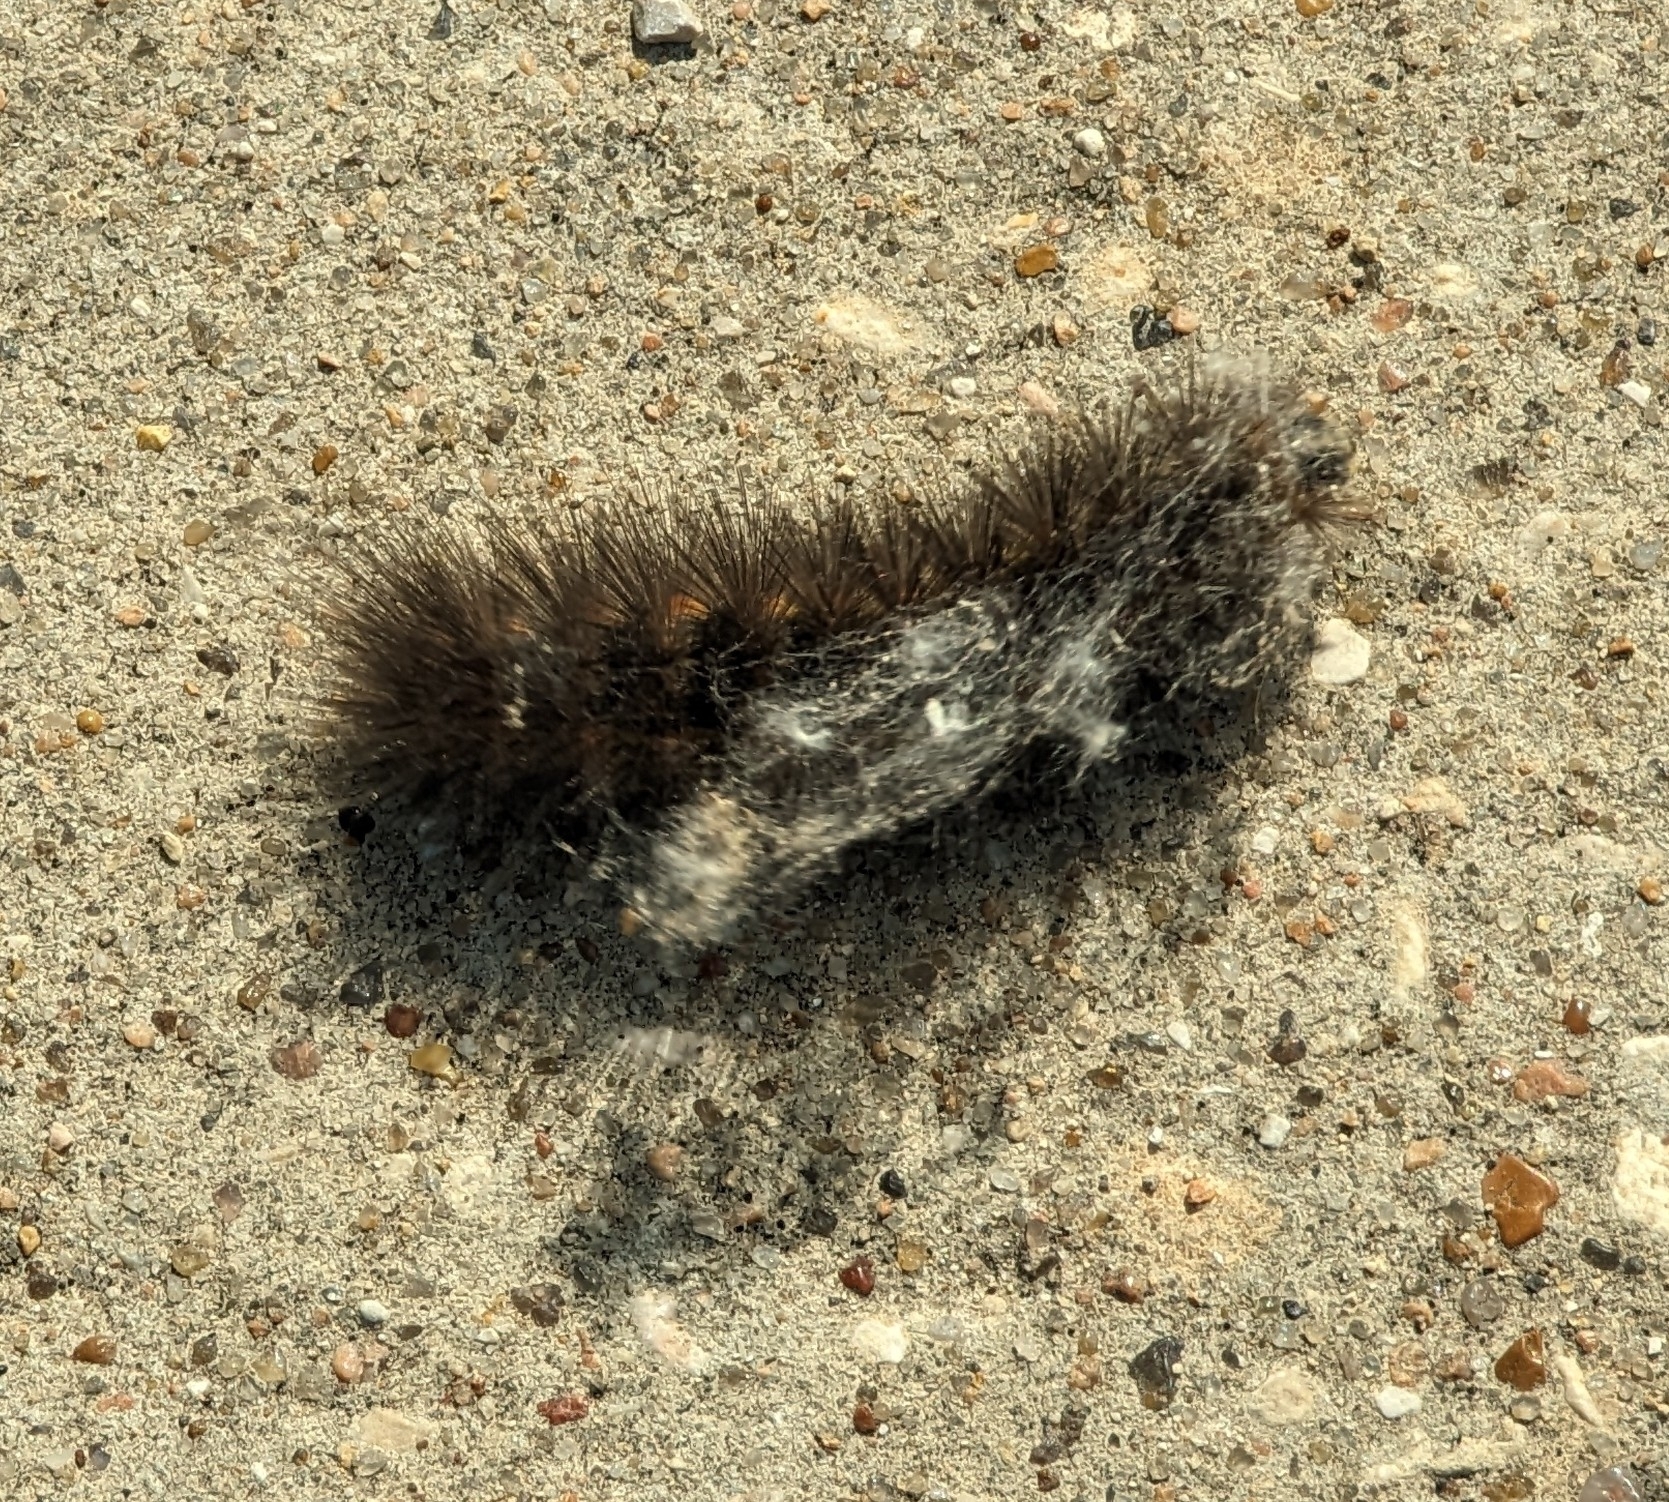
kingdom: Animalia
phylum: Arthropoda
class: Insecta
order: Lepidoptera
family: Erebidae
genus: Estigmene
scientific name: Estigmene acrea
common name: Salt marsh moth
